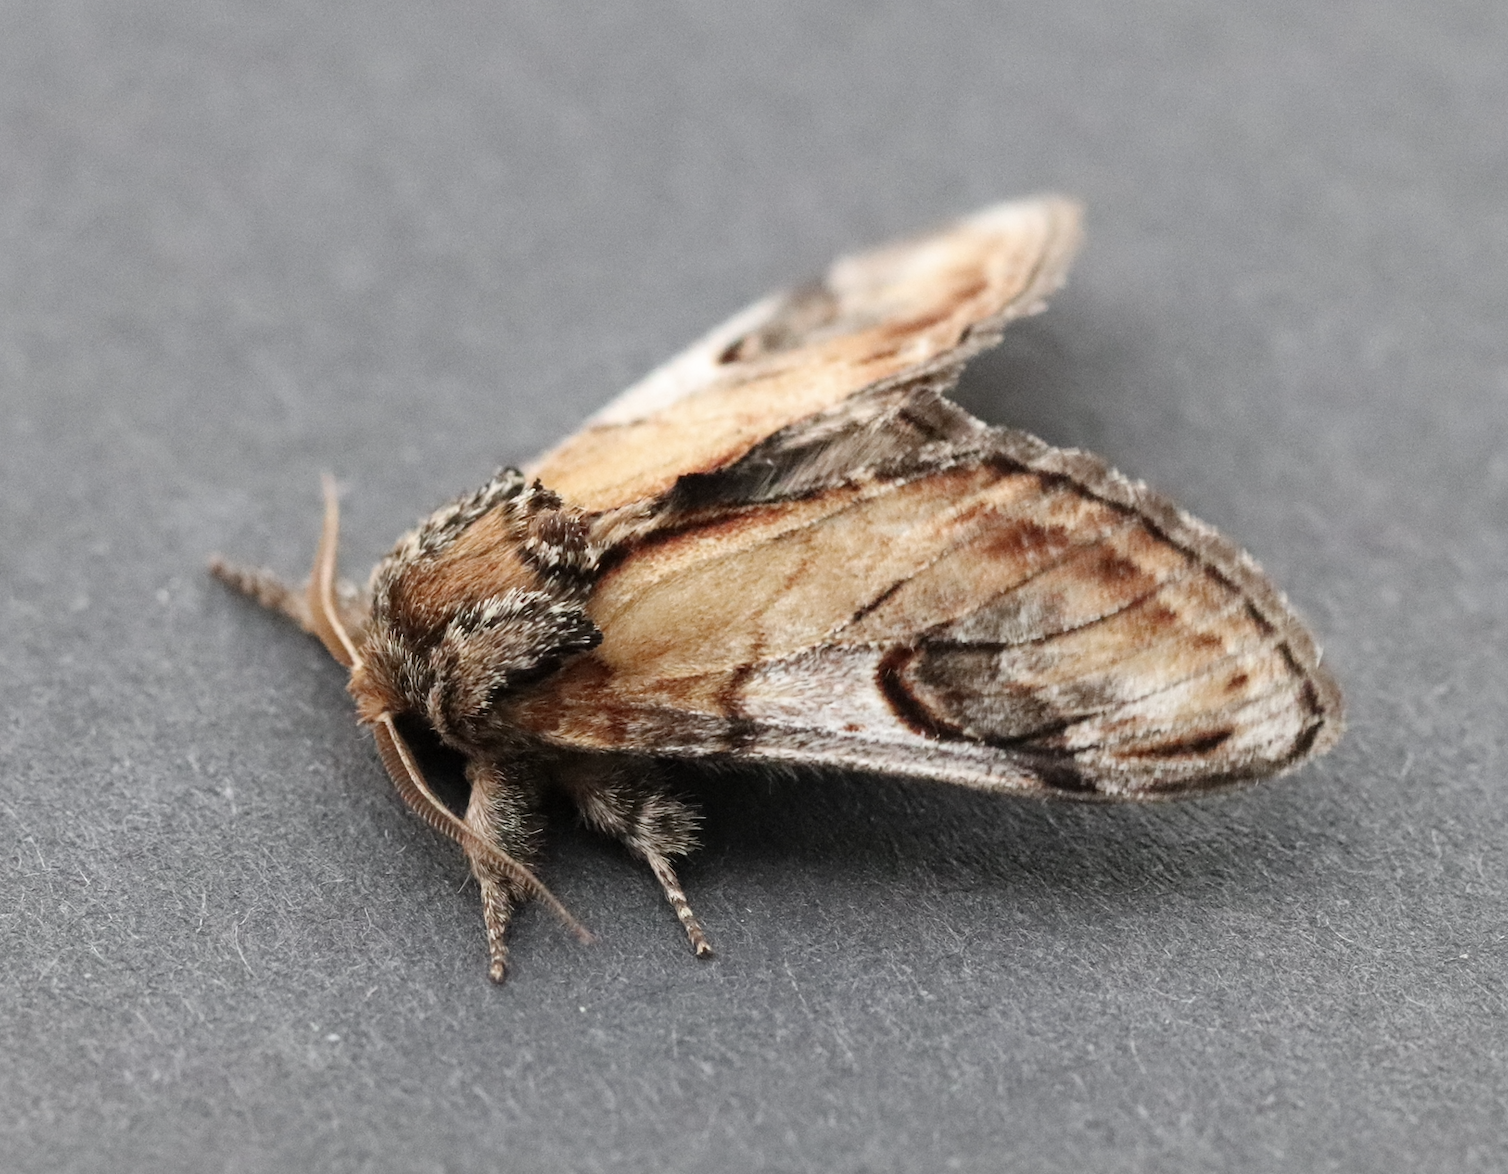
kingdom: Animalia
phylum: Arthropoda
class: Insecta
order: Lepidoptera
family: Notodontidae
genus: Notodonta
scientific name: Notodonta ziczac
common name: Pebble prominent
